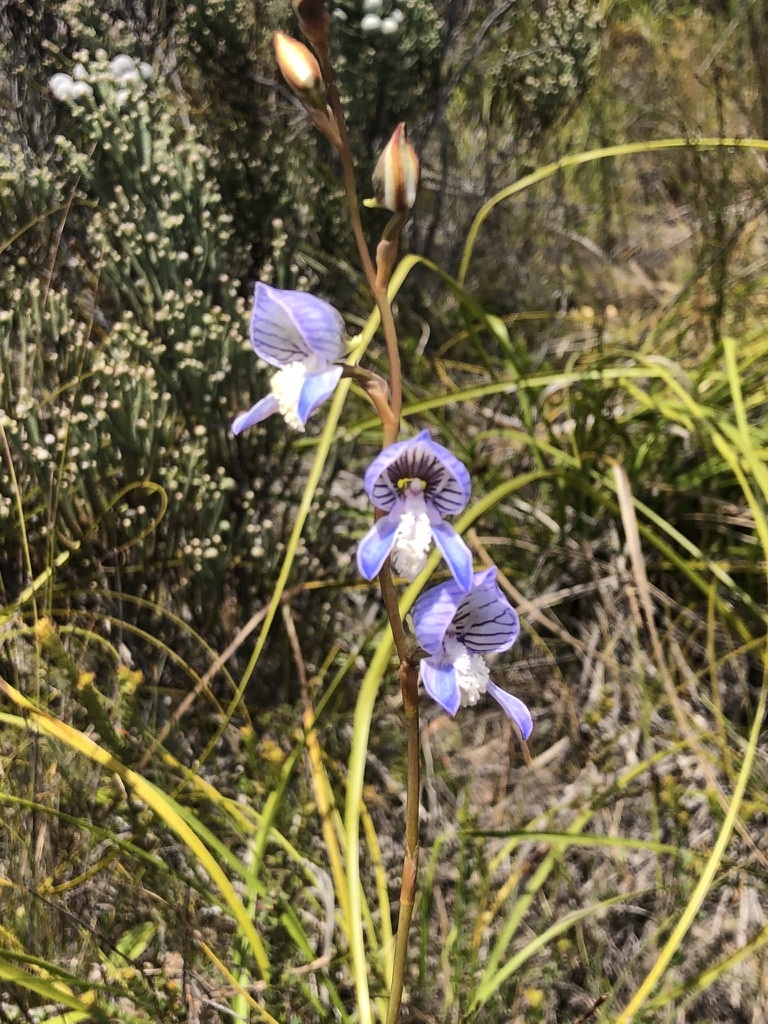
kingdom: Plantae
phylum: Tracheophyta
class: Liliopsida
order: Asparagales
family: Orchidaceae
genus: Disa
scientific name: Disa venusta
